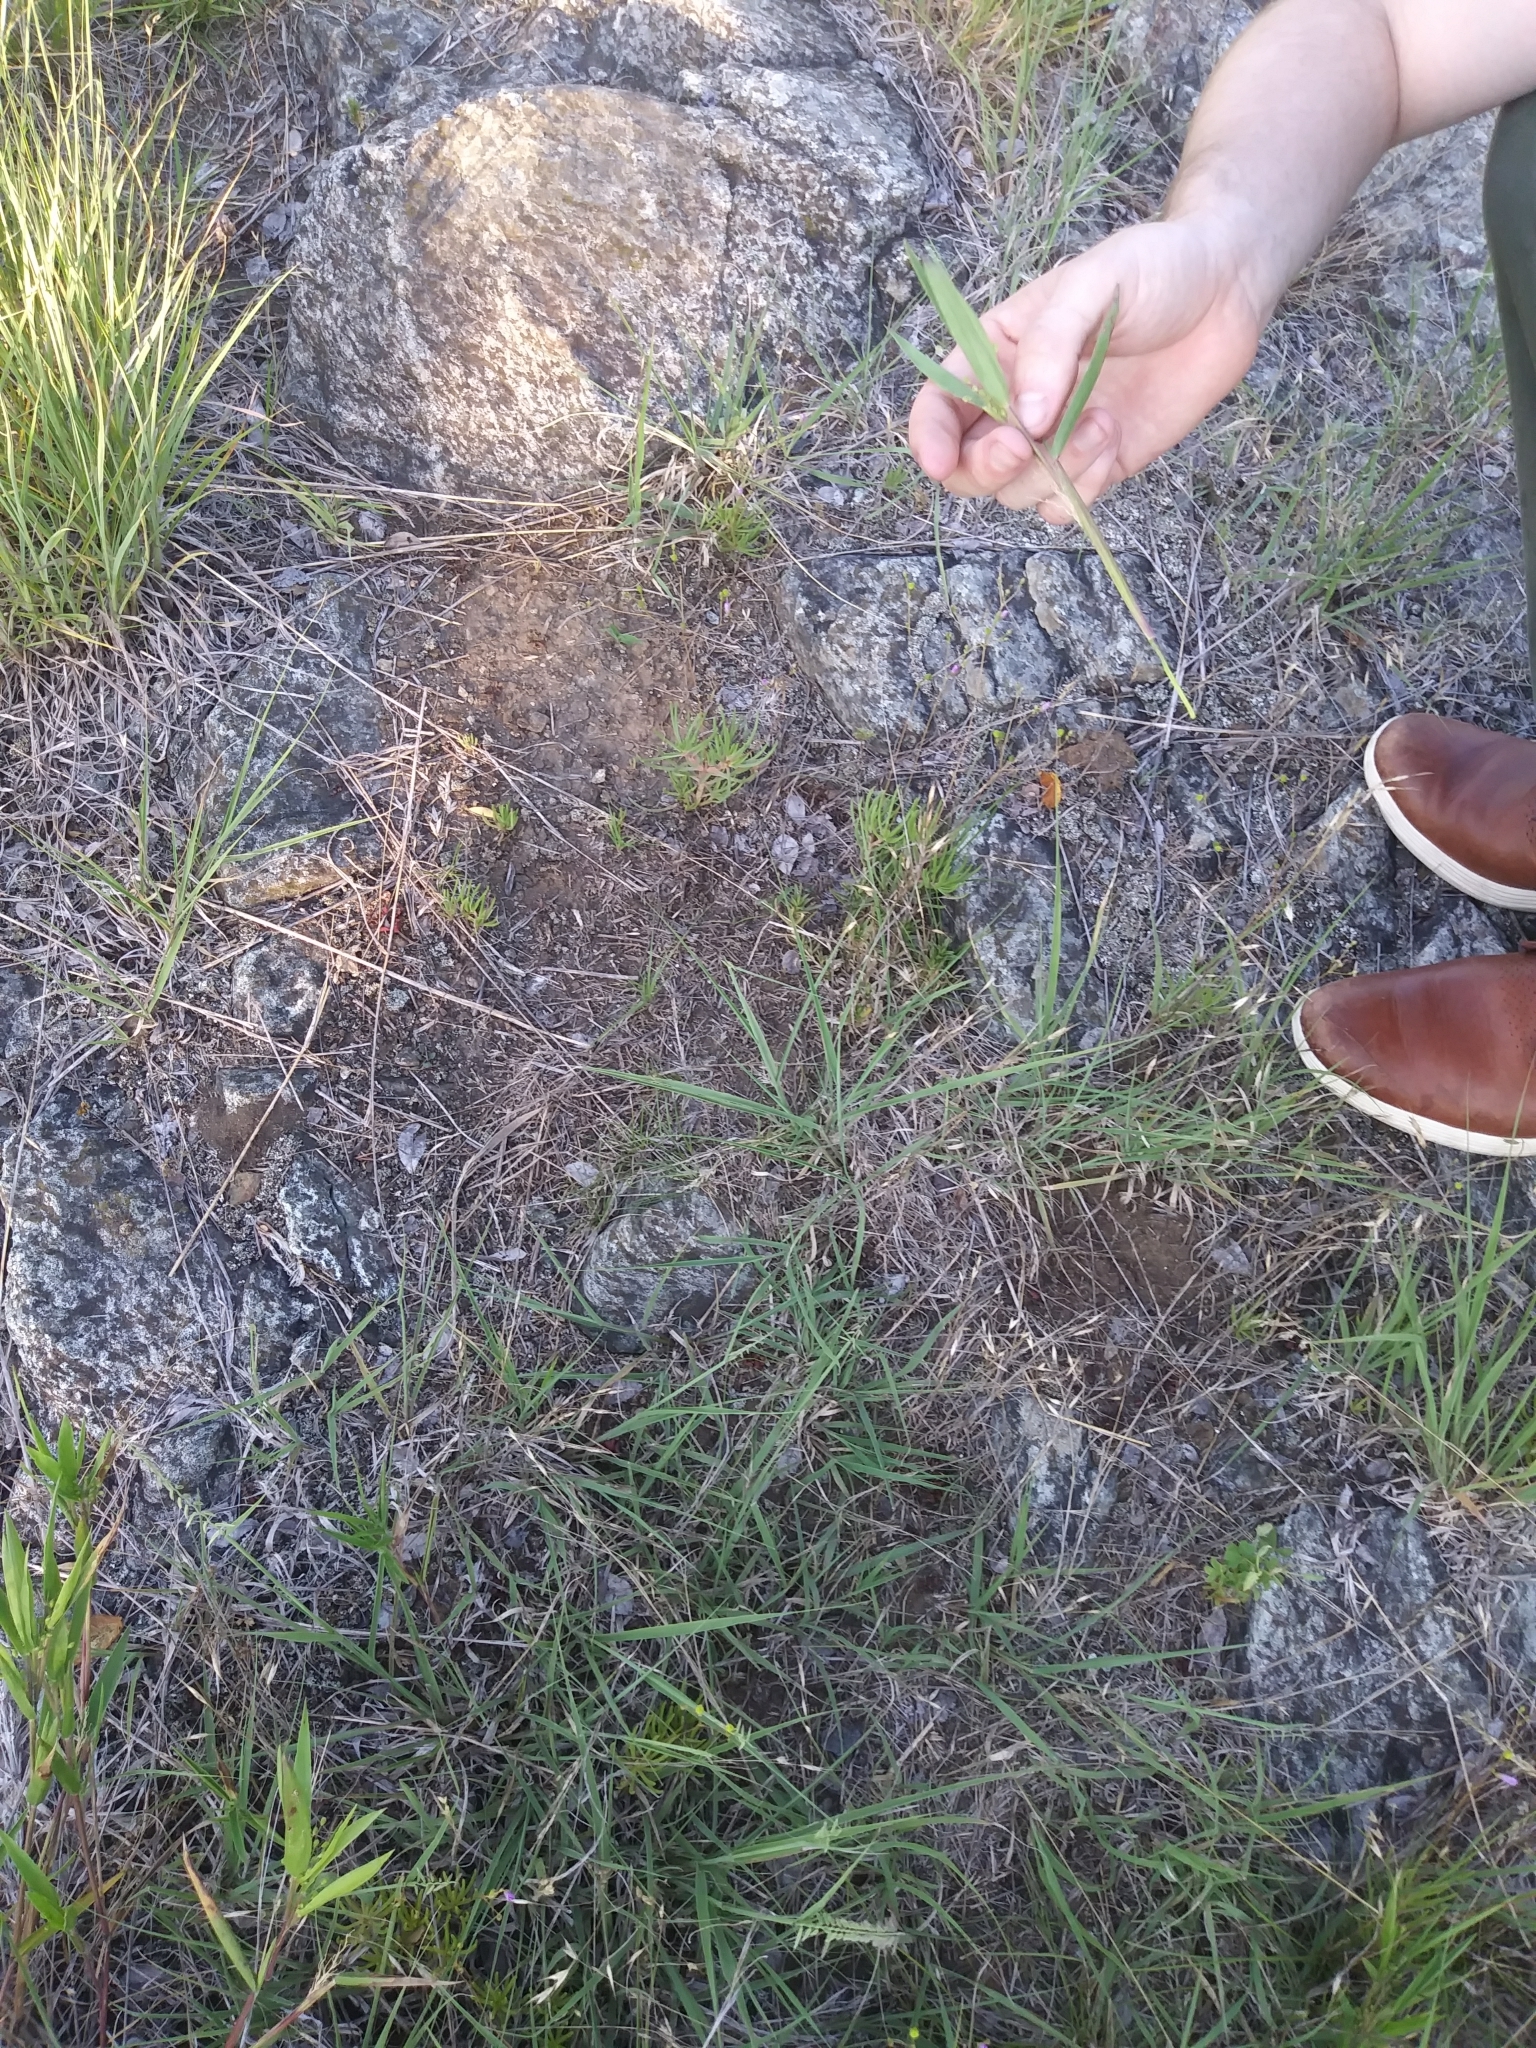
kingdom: Plantae
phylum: Tracheophyta
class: Magnoliopsida
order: Caryophyllales
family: Montiaceae
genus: Phemeranthus
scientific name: Phemeranthus teretifolius
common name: Quill fameflower
